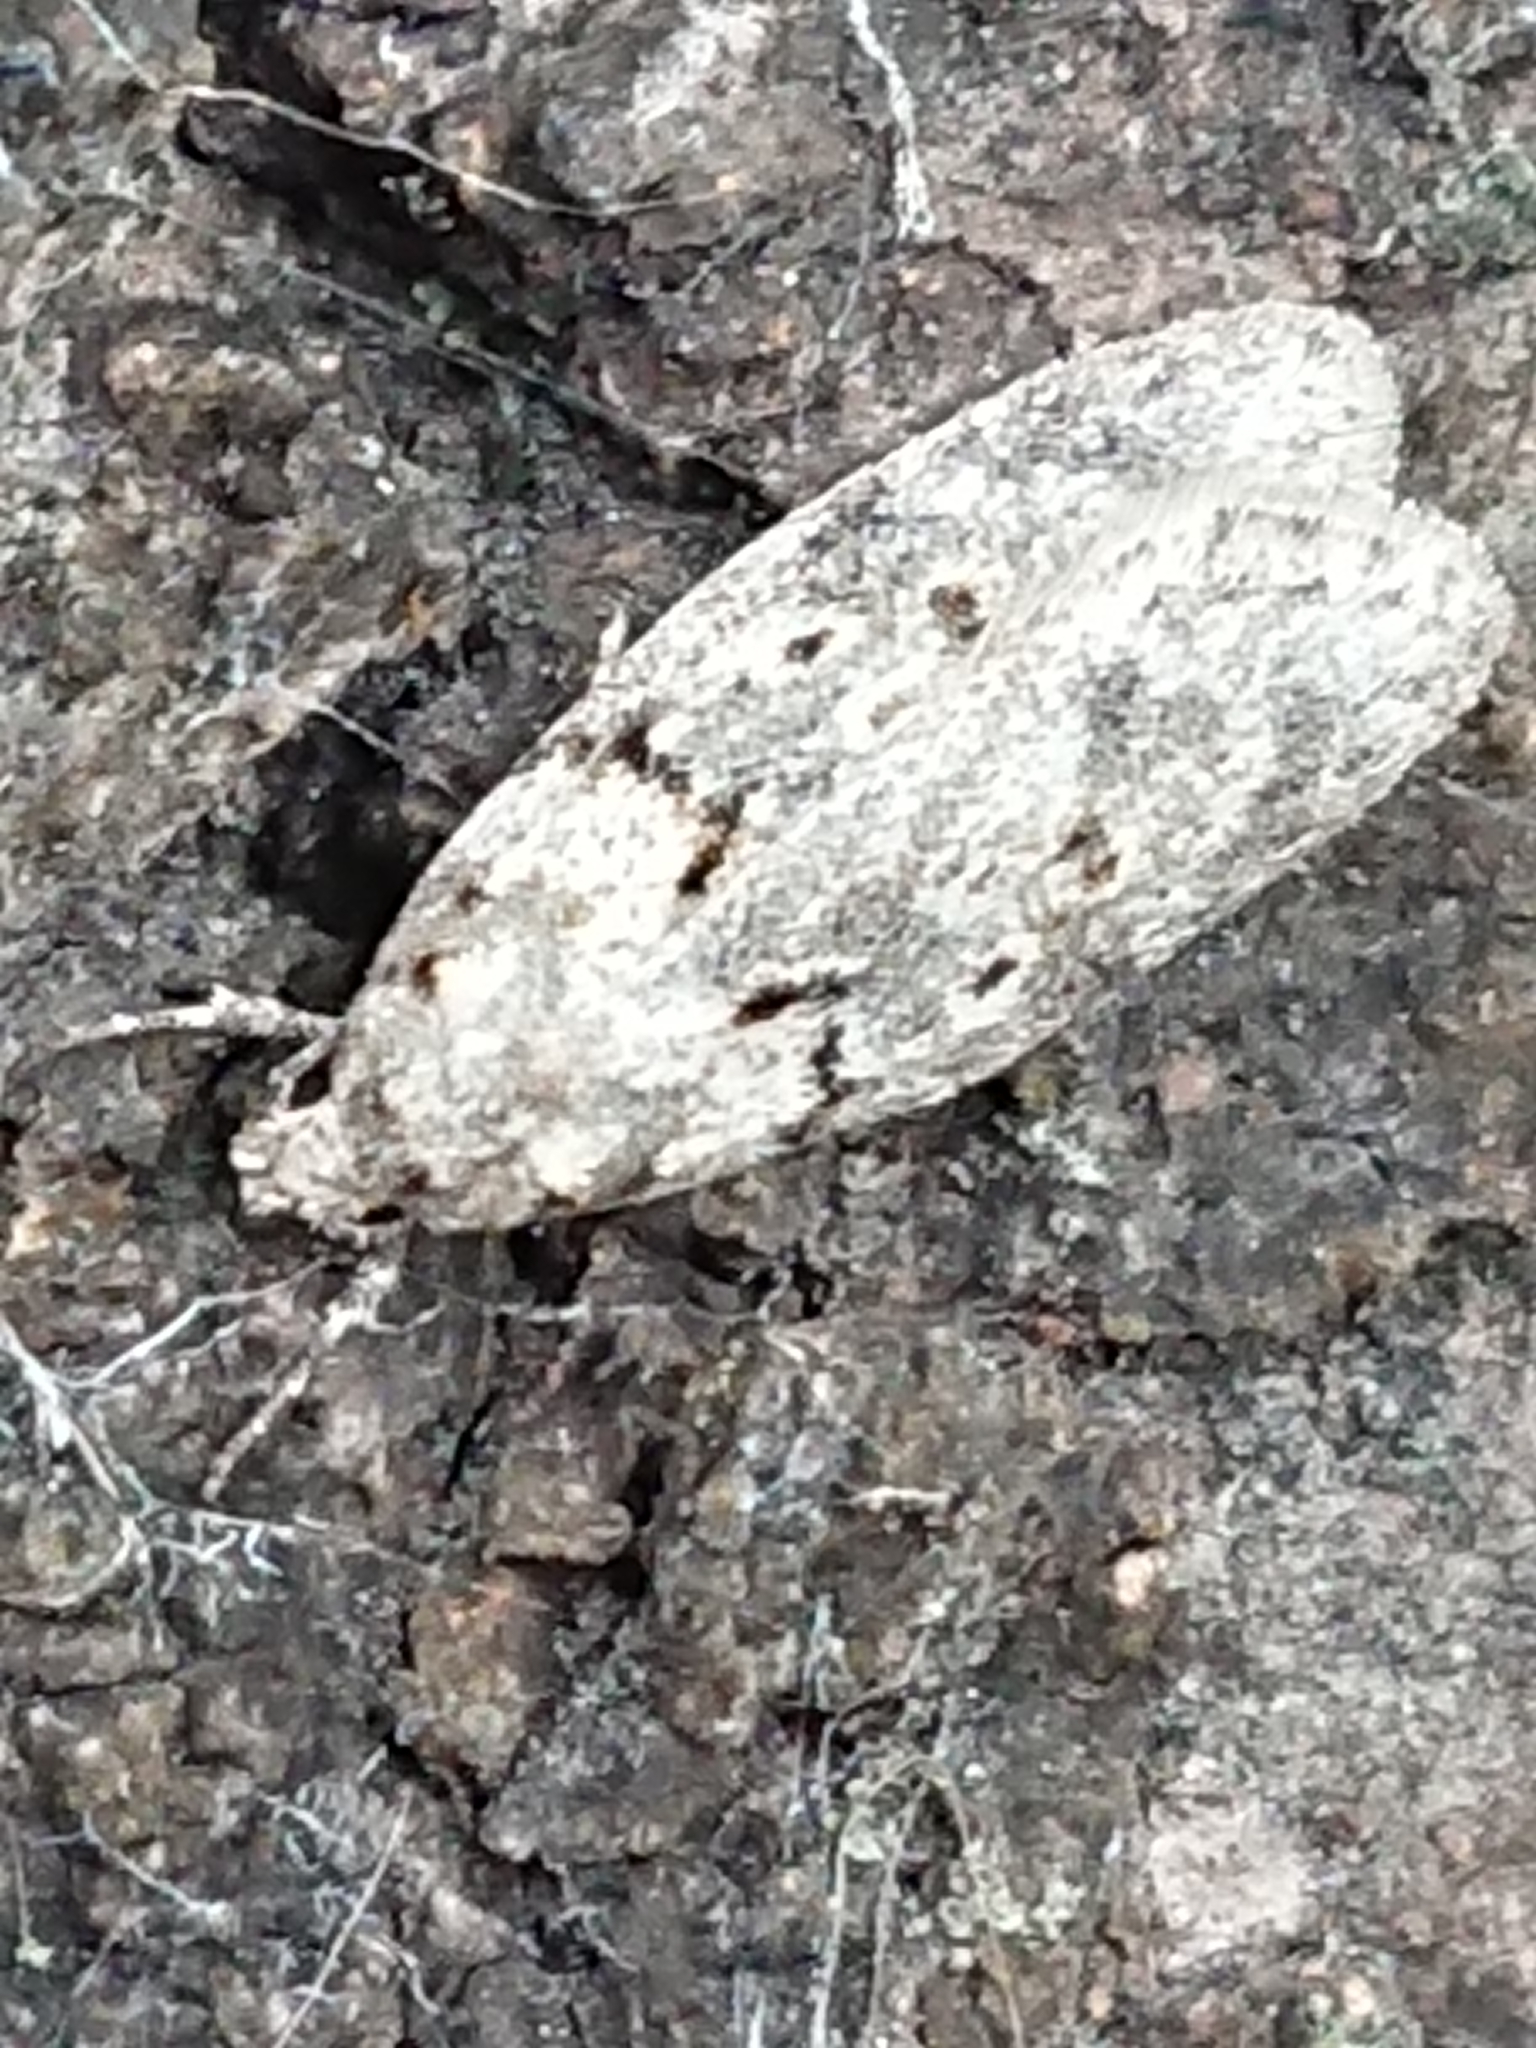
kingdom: Animalia
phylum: Arthropoda
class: Insecta
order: Lepidoptera
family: Oecophoridae
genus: Izatha
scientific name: Izatha convulsella
